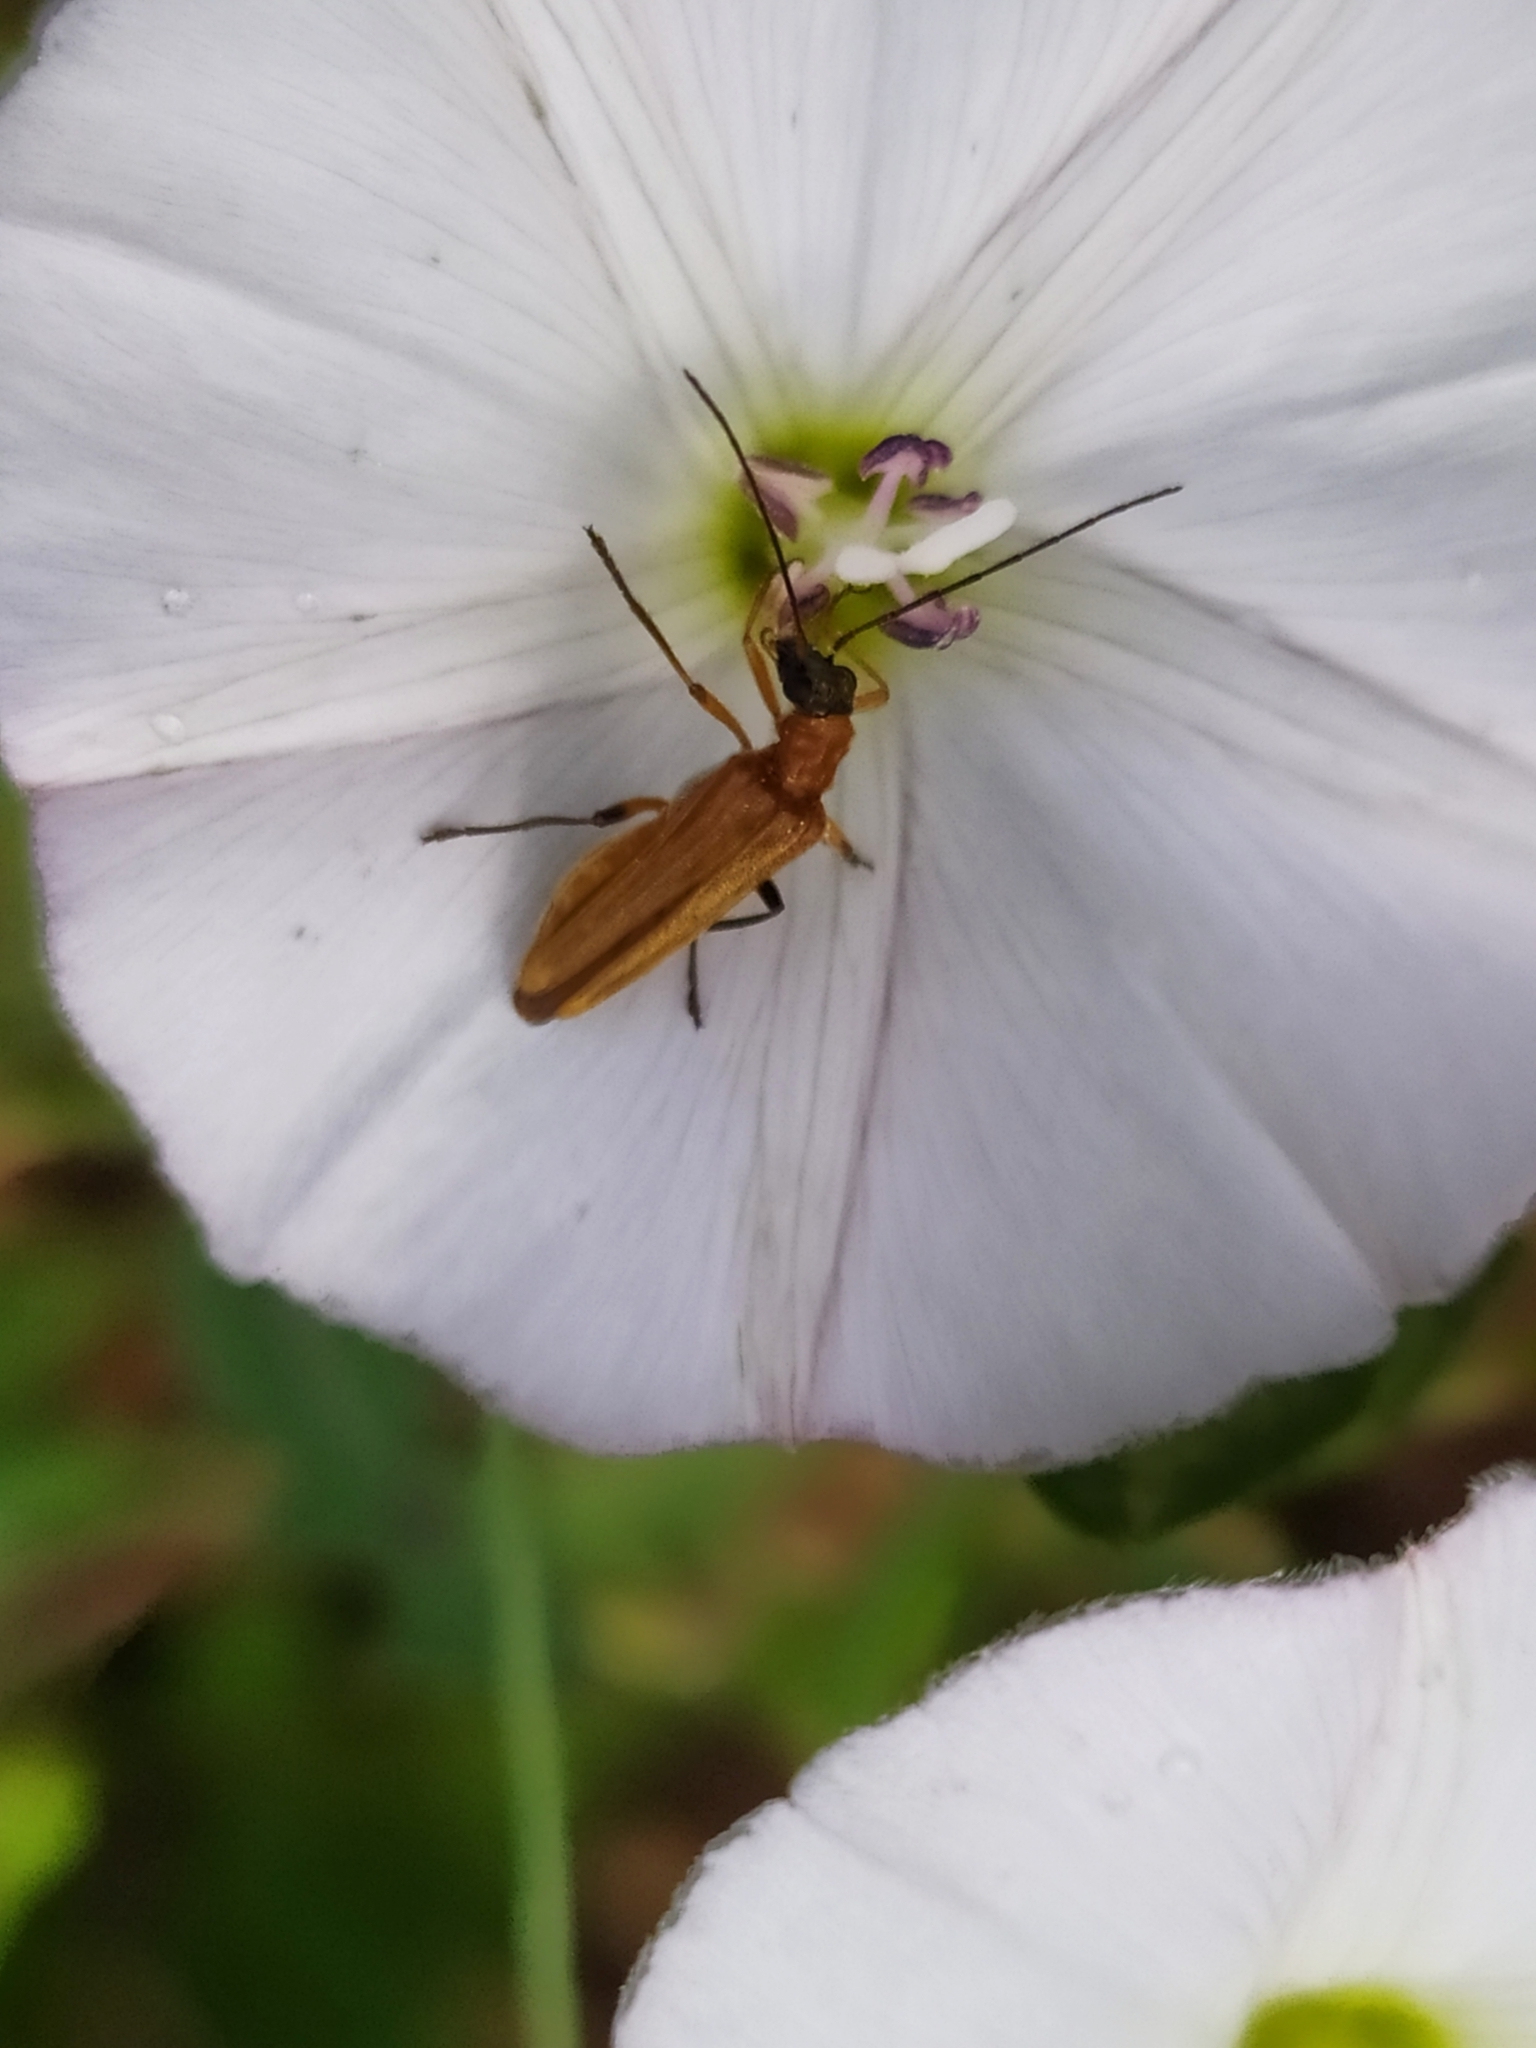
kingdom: Animalia
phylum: Arthropoda
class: Insecta
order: Coleoptera
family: Oedemeridae
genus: Oedemera
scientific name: Oedemera podagrariae
